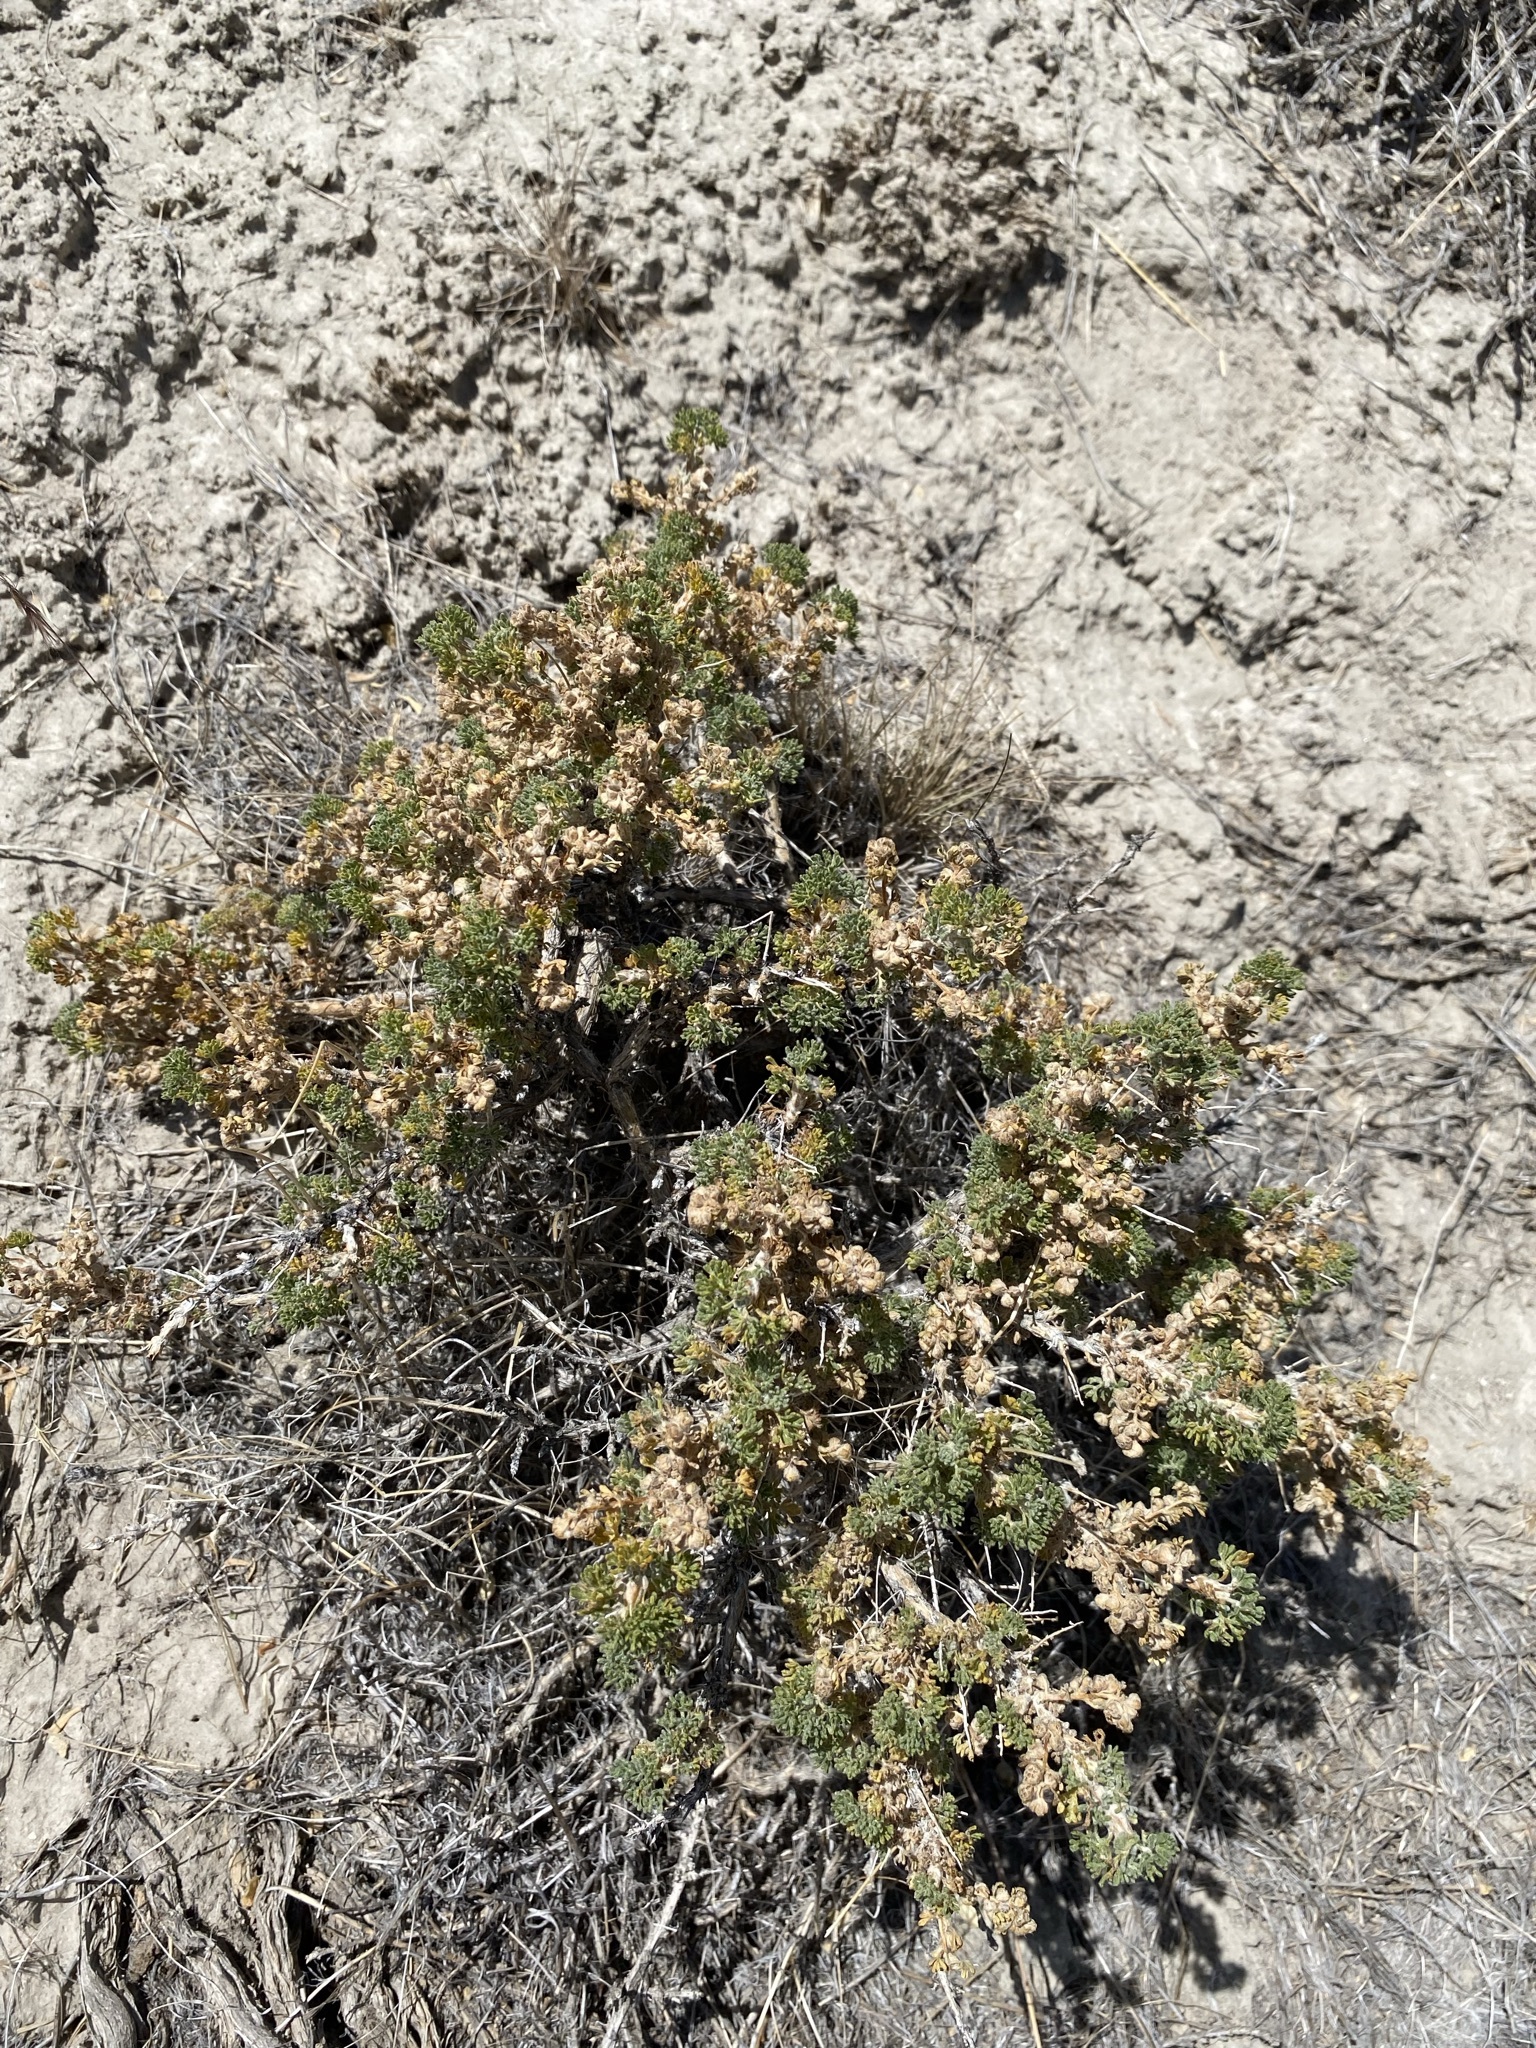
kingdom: Plantae
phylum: Tracheophyta
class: Magnoliopsida
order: Asterales
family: Asteraceae
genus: Artemisia
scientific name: Artemisia spinescens
